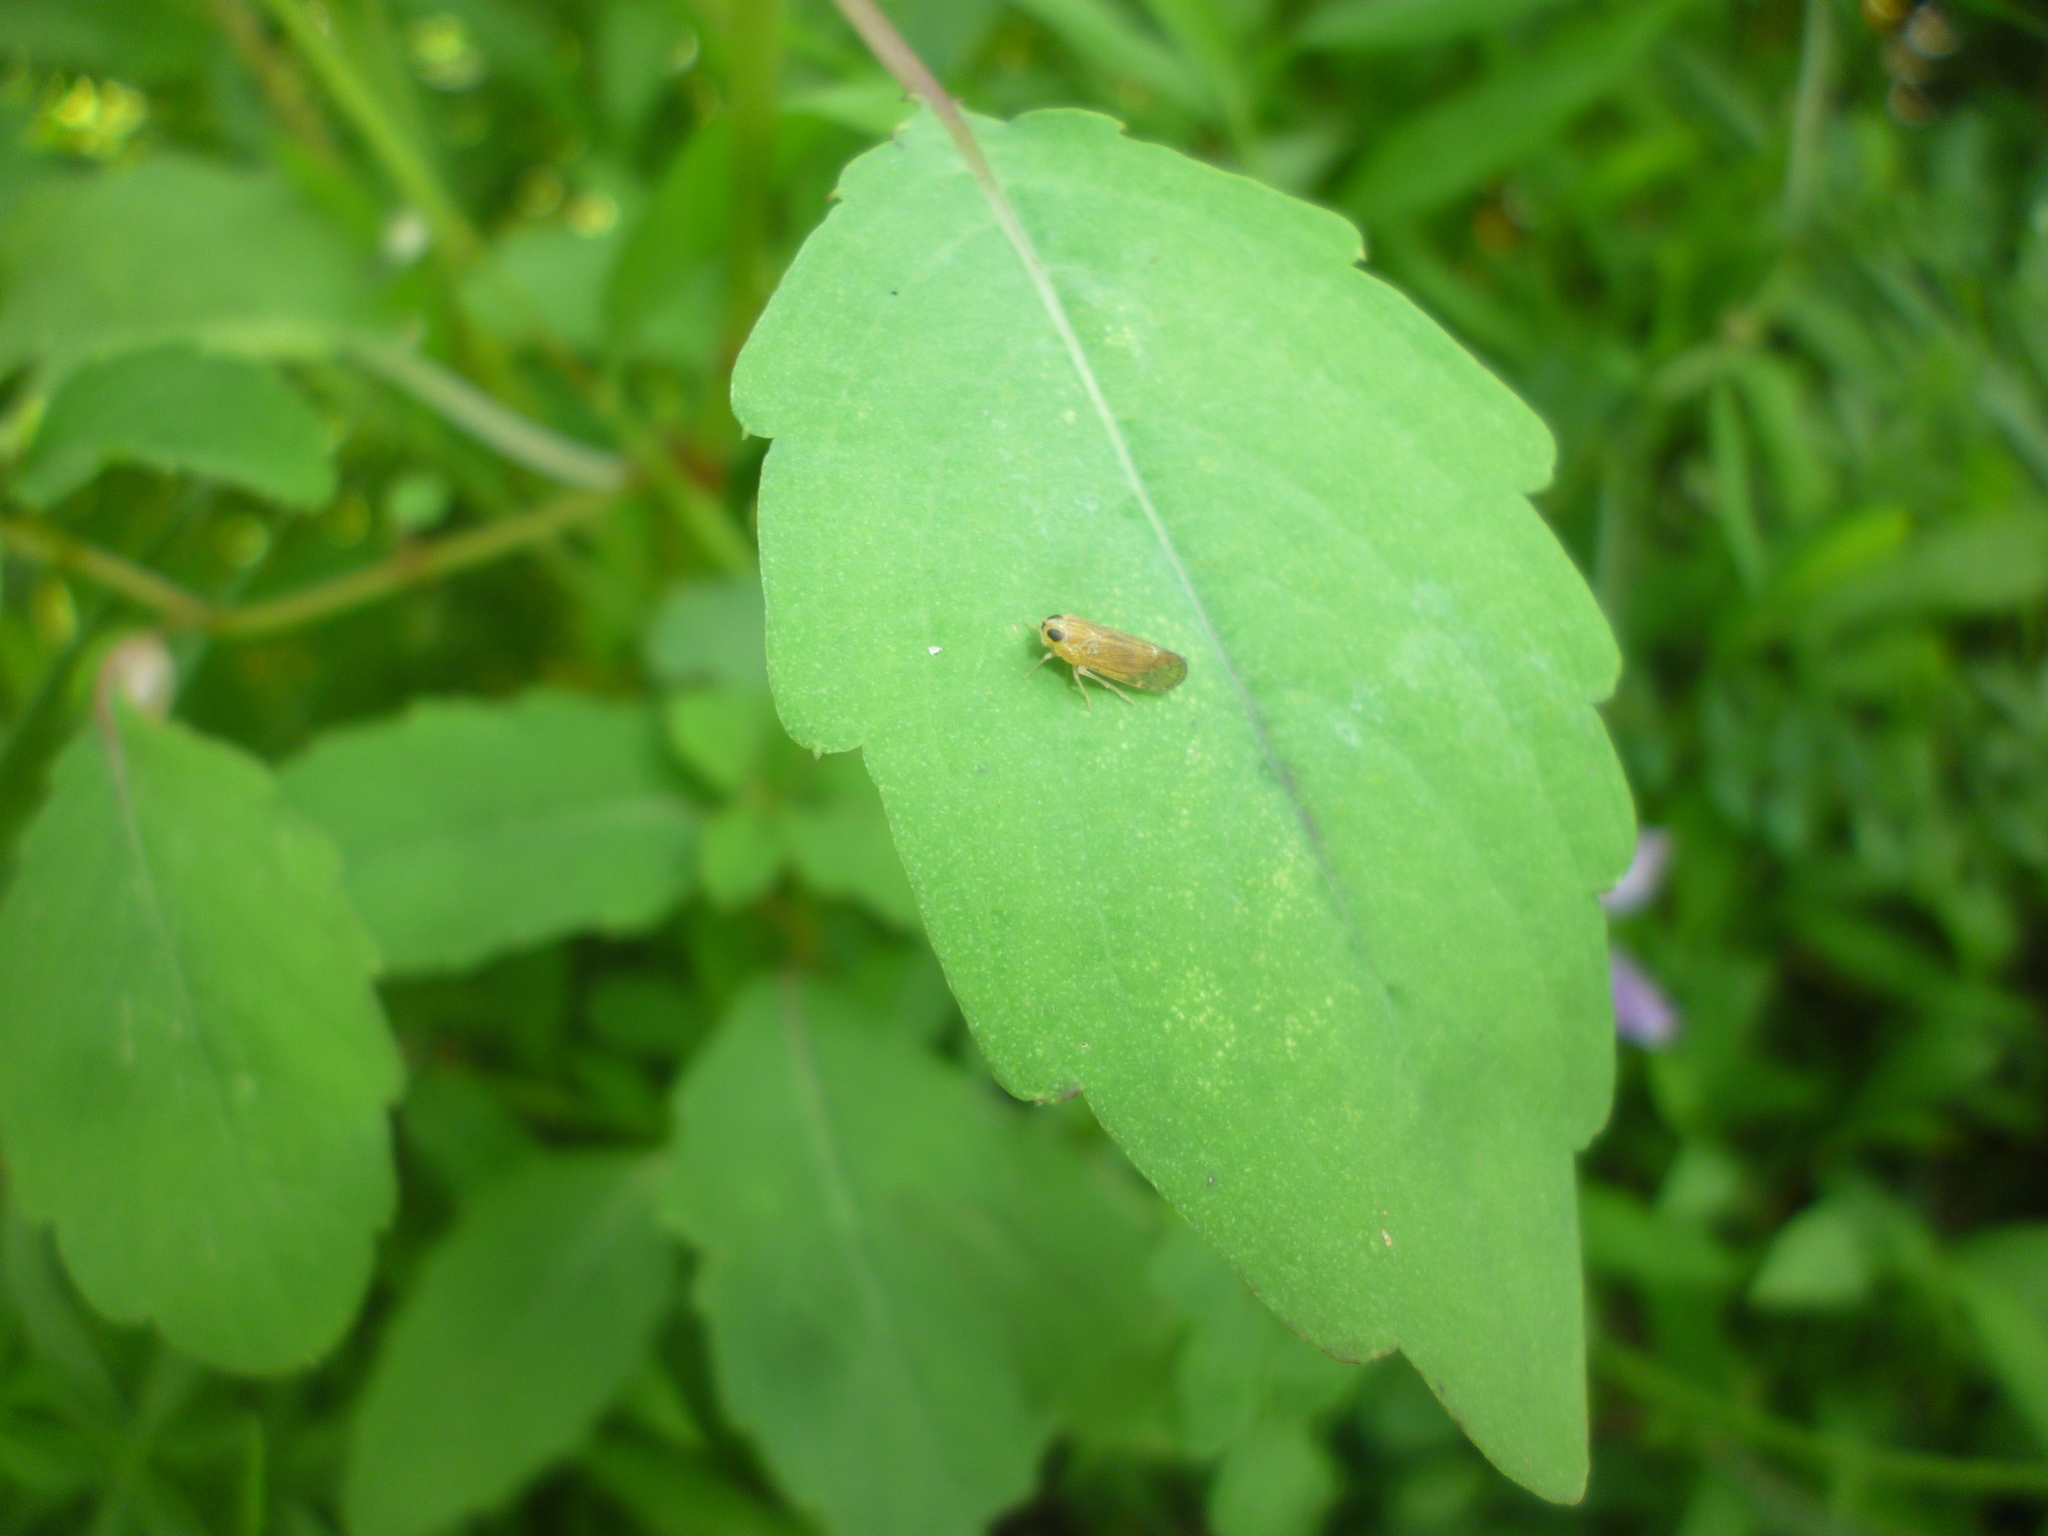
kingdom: Plantae
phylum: Tracheophyta
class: Magnoliopsida
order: Ericales
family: Balsaminaceae
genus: Impatiens
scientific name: Impatiens
